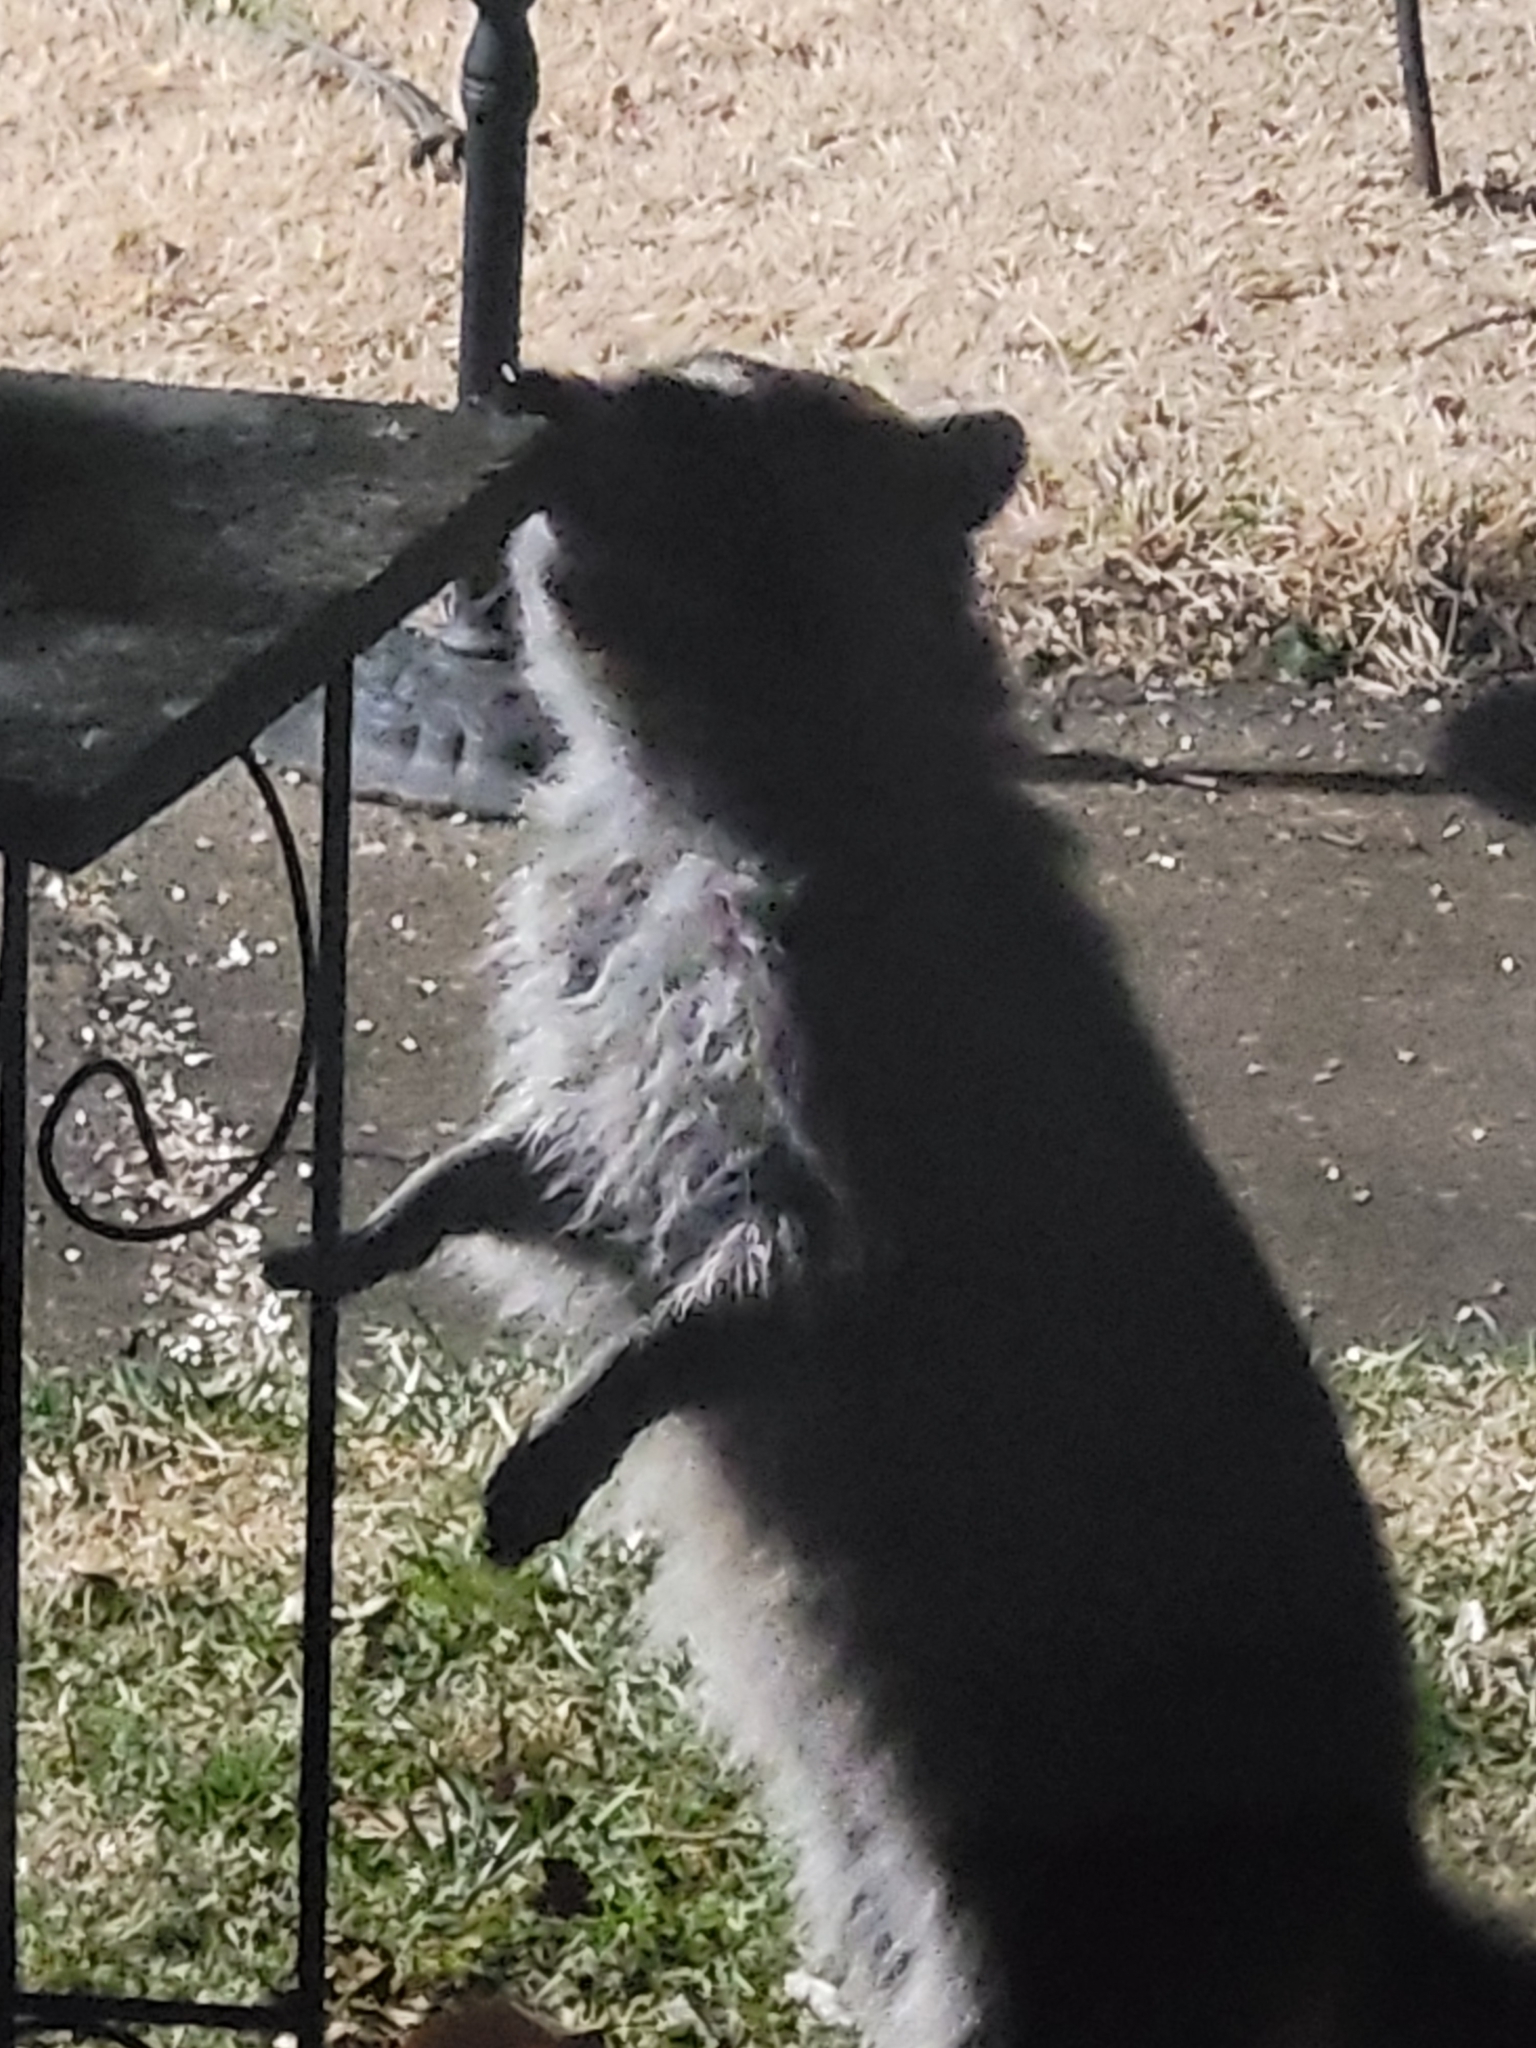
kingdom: Animalia
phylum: Chordata
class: Mammalia
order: Carnivora
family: Procyonidae
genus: Procyon
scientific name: Procyon lotor
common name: Raccoon
